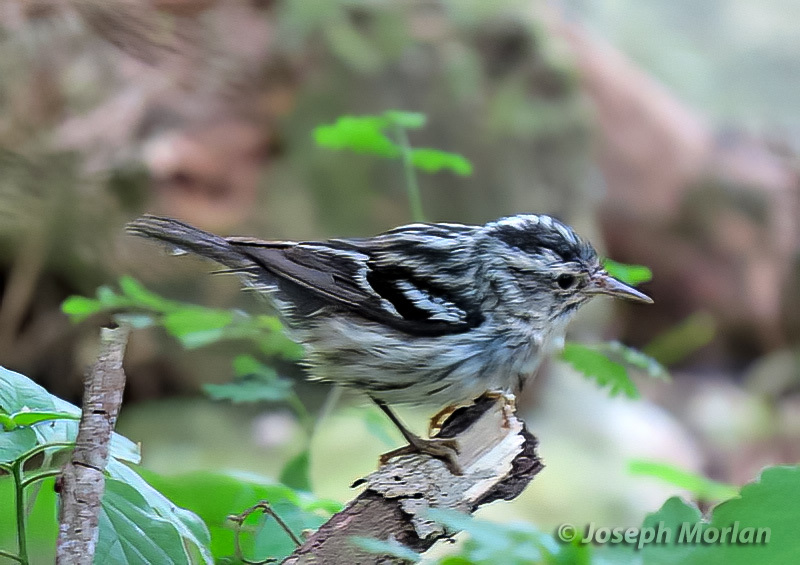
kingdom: Animalia
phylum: Chordata
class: Aves
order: Passeriformes
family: Parulidae
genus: Mniotilta
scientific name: Mniotilta varia
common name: Black-and-white warbler
